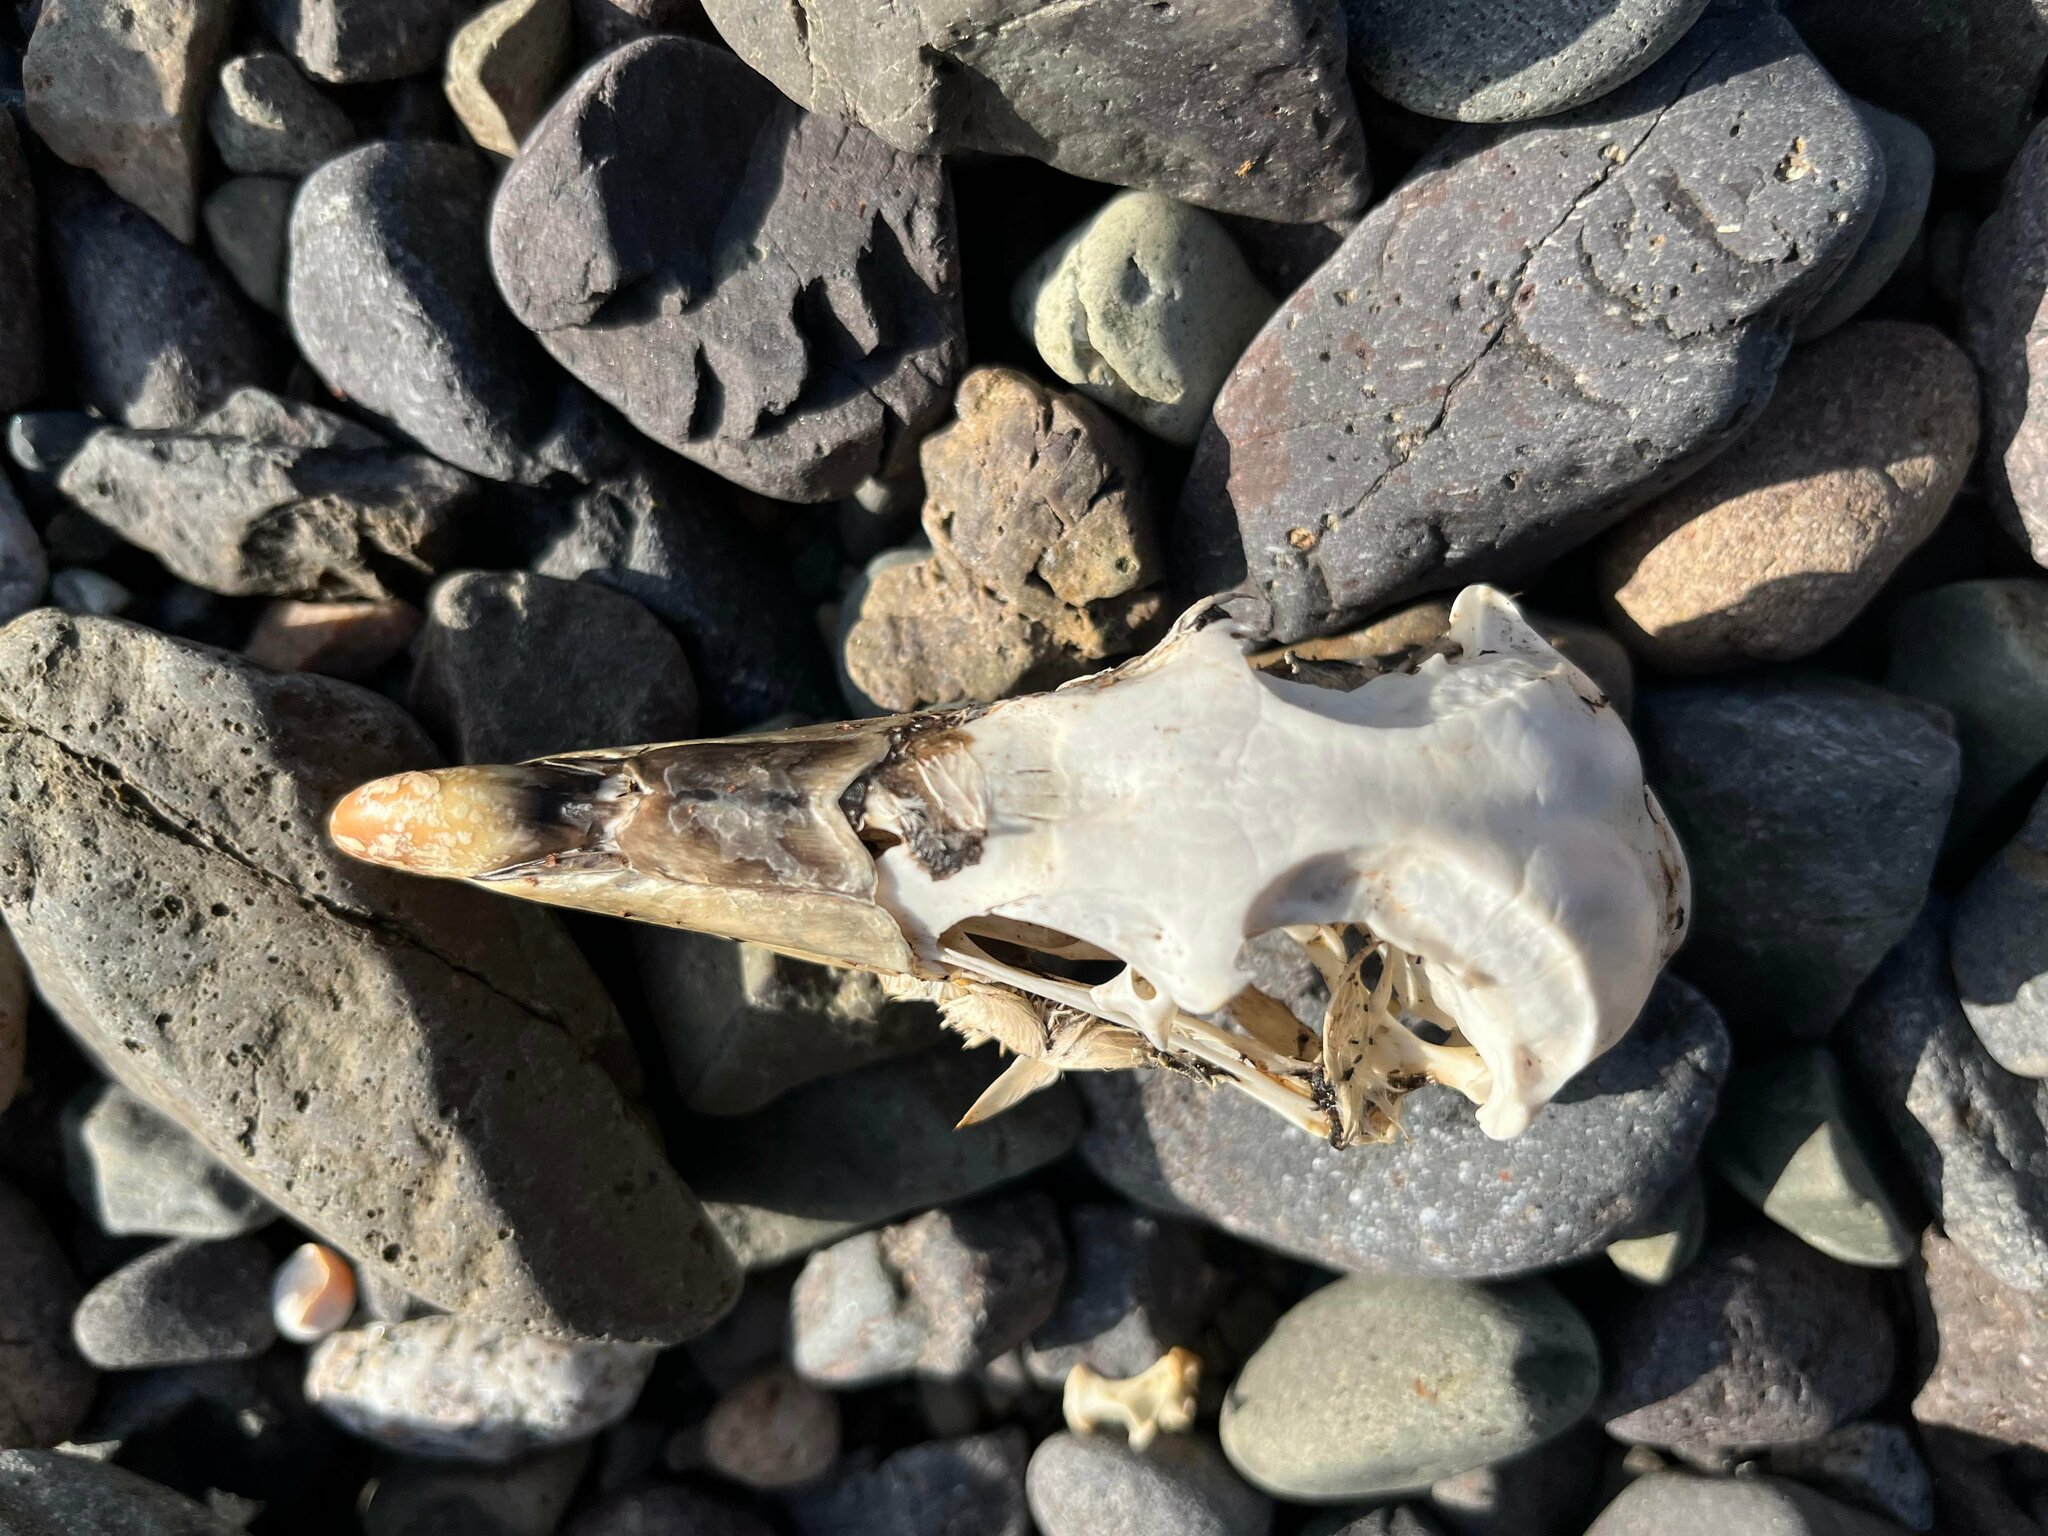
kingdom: Animalia
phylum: Chordata
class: Aves
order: Procellariiformes
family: Procellariidae
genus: Fulmarus
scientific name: Fulmarus glacialis
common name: Northern fulmar
